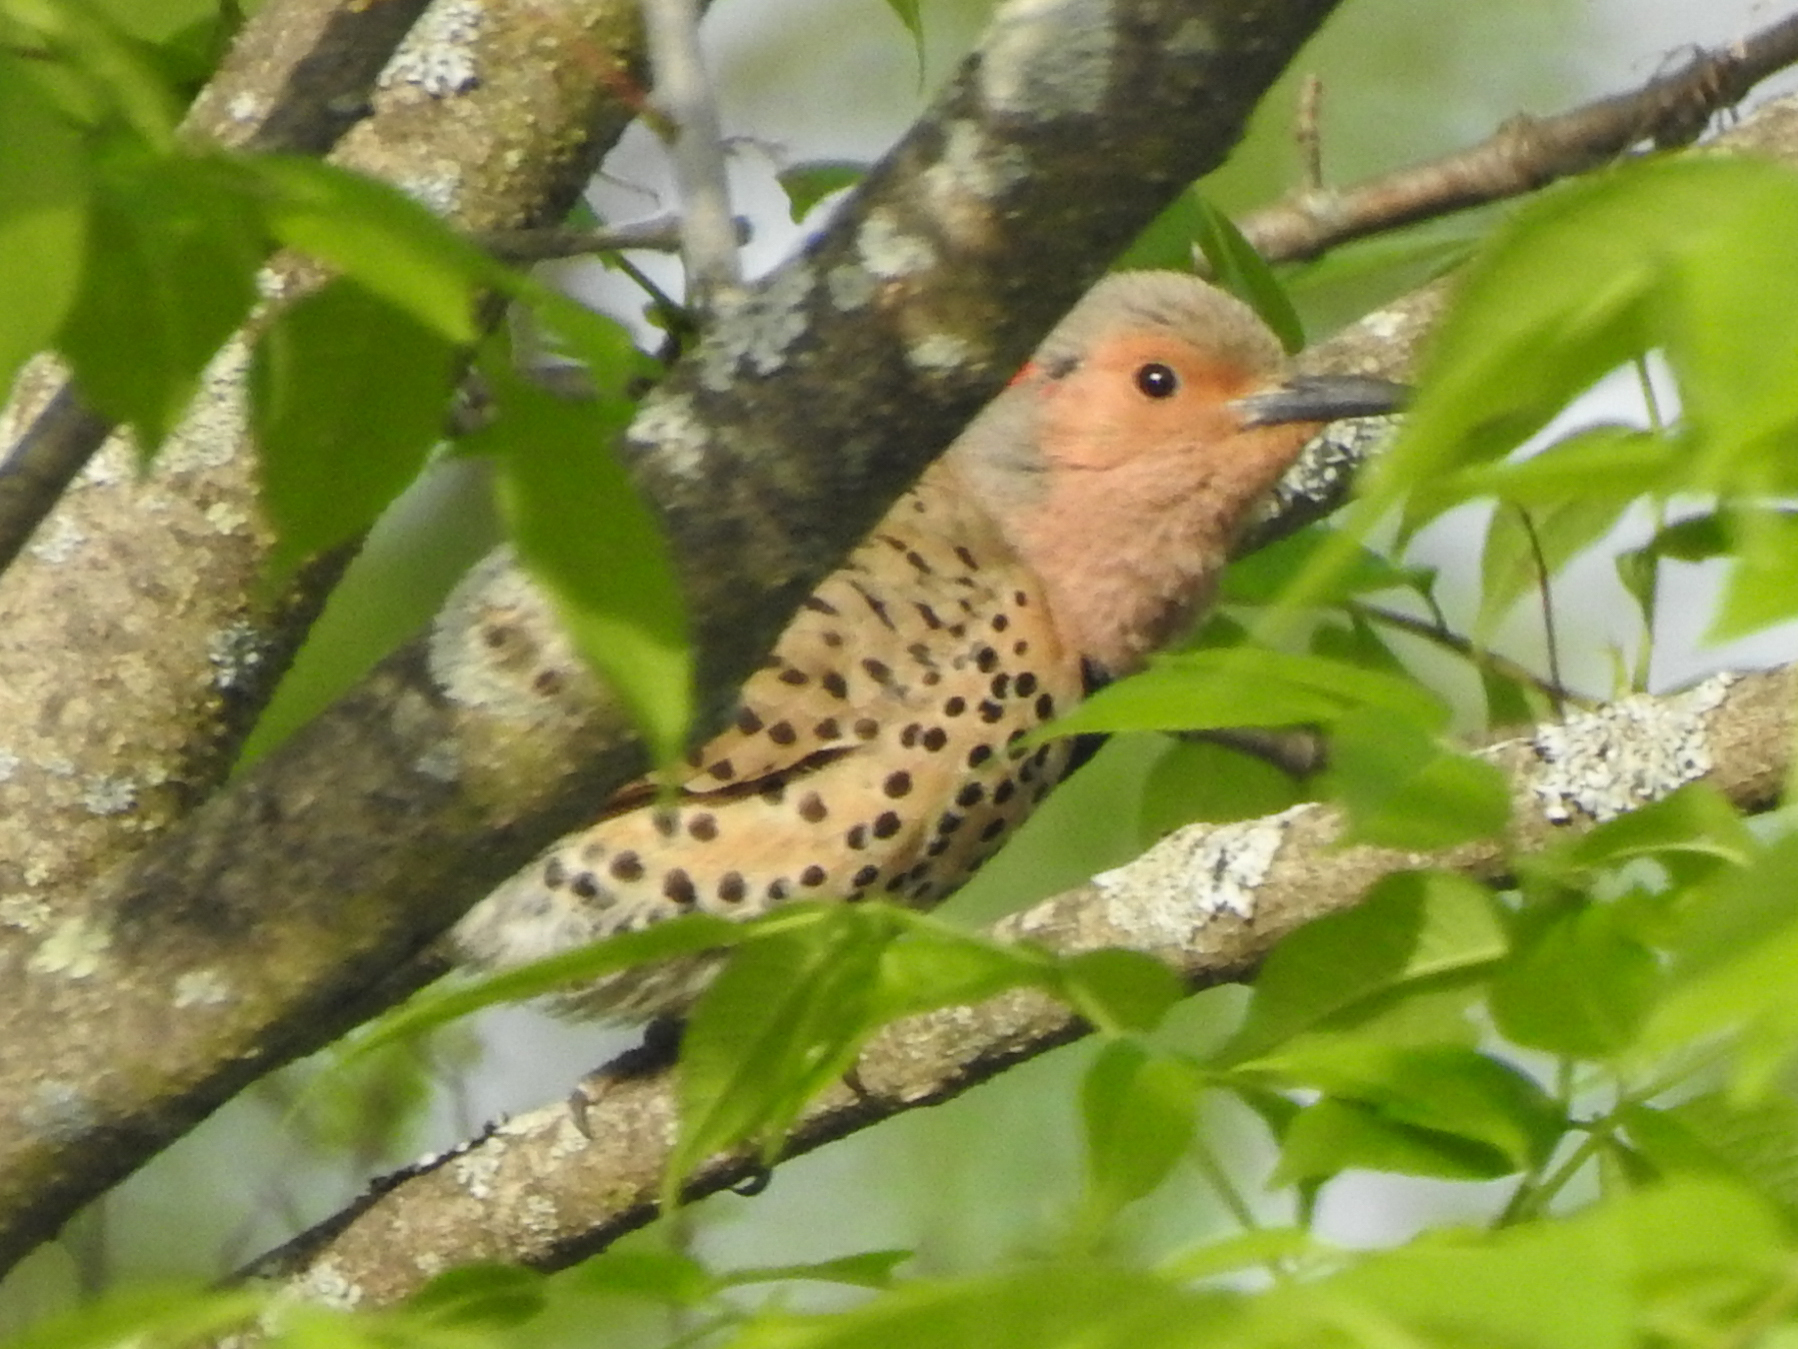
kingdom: Animalia
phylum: Chordata
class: Aves
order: Piciformes
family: Picidae
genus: Colaptes
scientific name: Colaptes auratus
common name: Northern flicker
